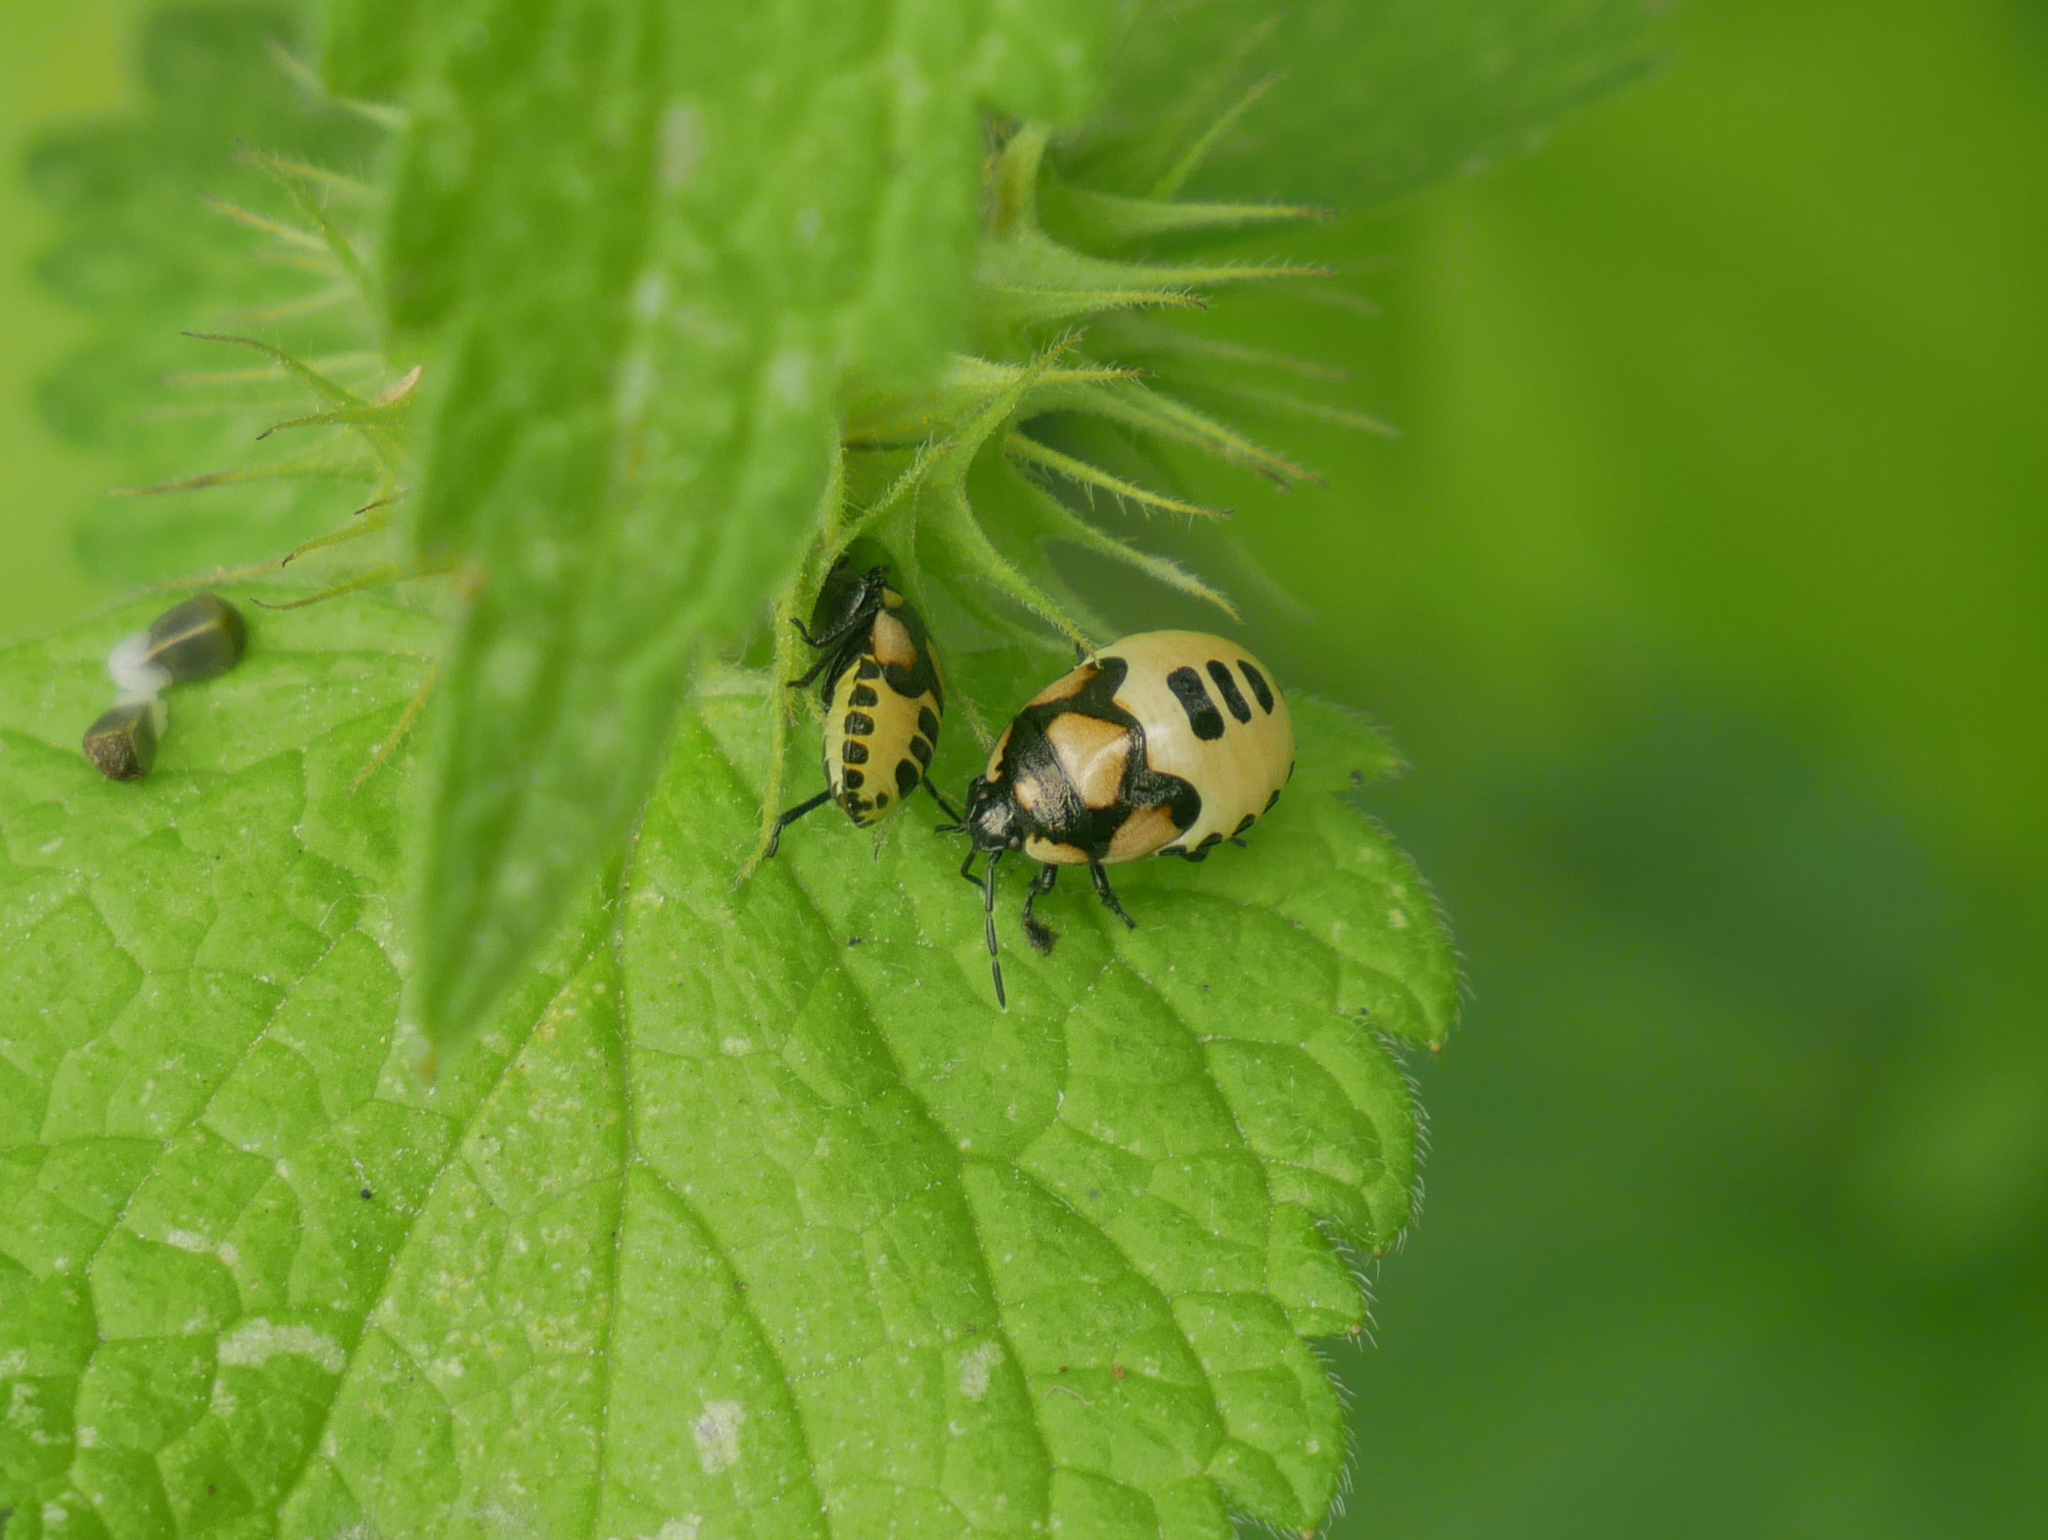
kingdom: Animalia
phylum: Arthropoda
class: Insecta
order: Hemiptera
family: Cydnidae
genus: Tritomegas
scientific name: Tritomegas bicolor
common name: Pied shieldbug
